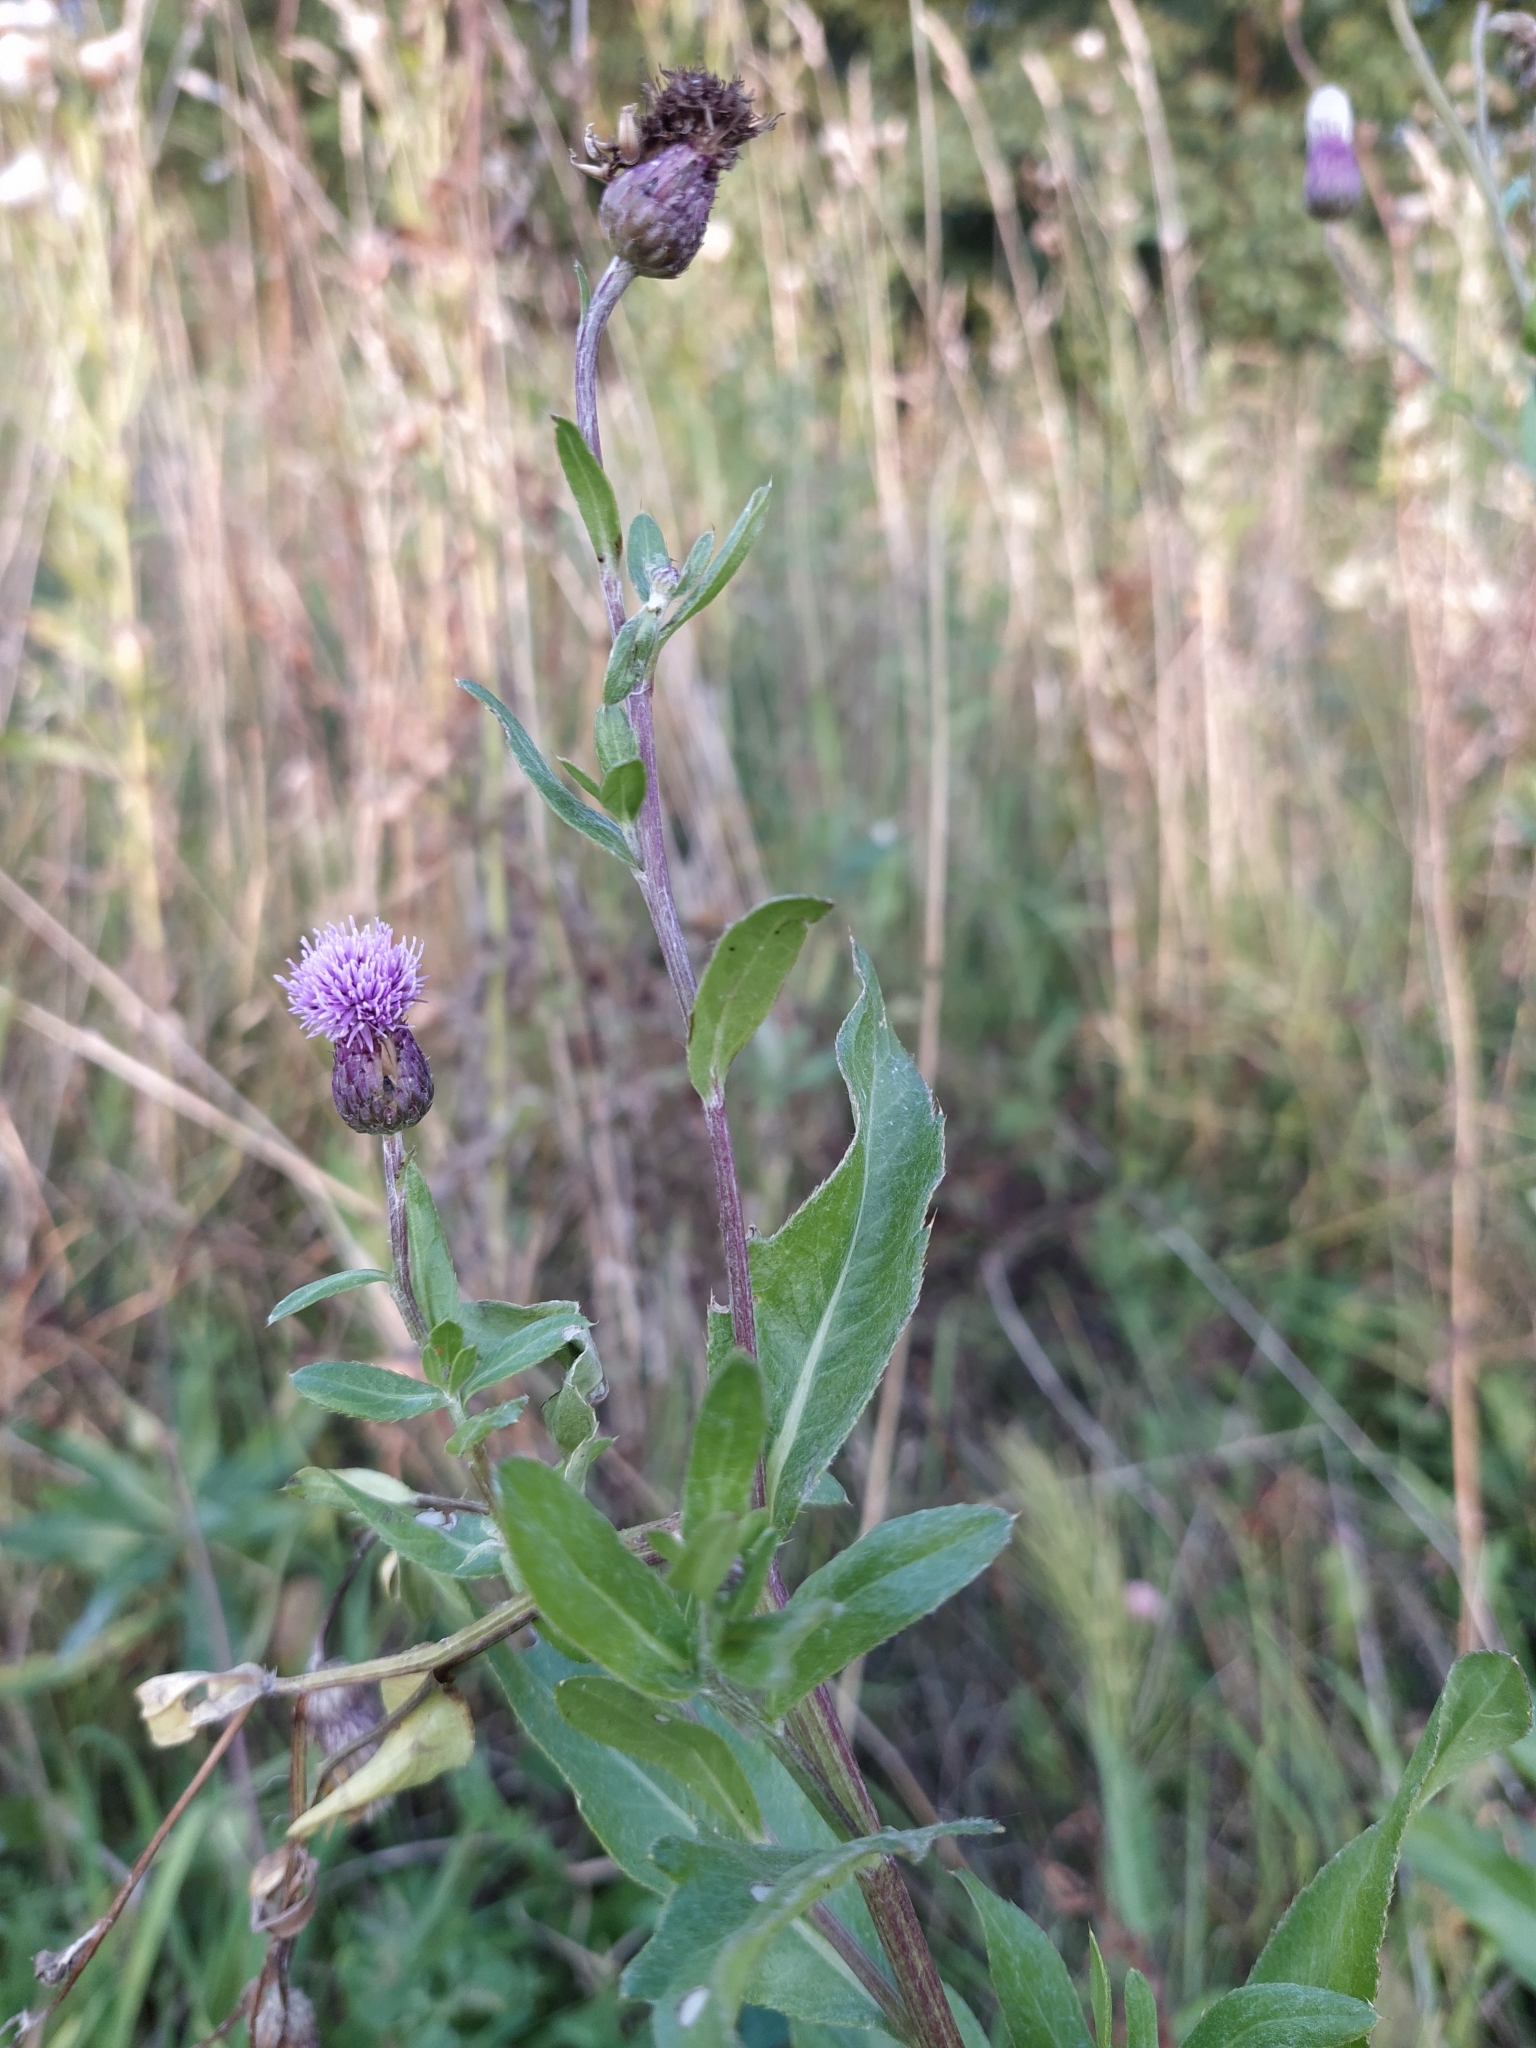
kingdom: Plantae
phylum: Tracheophyta
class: Magnoliopsida
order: Asterales
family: Asteraceae
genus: Cirsium
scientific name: Cirsium arvense
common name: Creeping thistle
